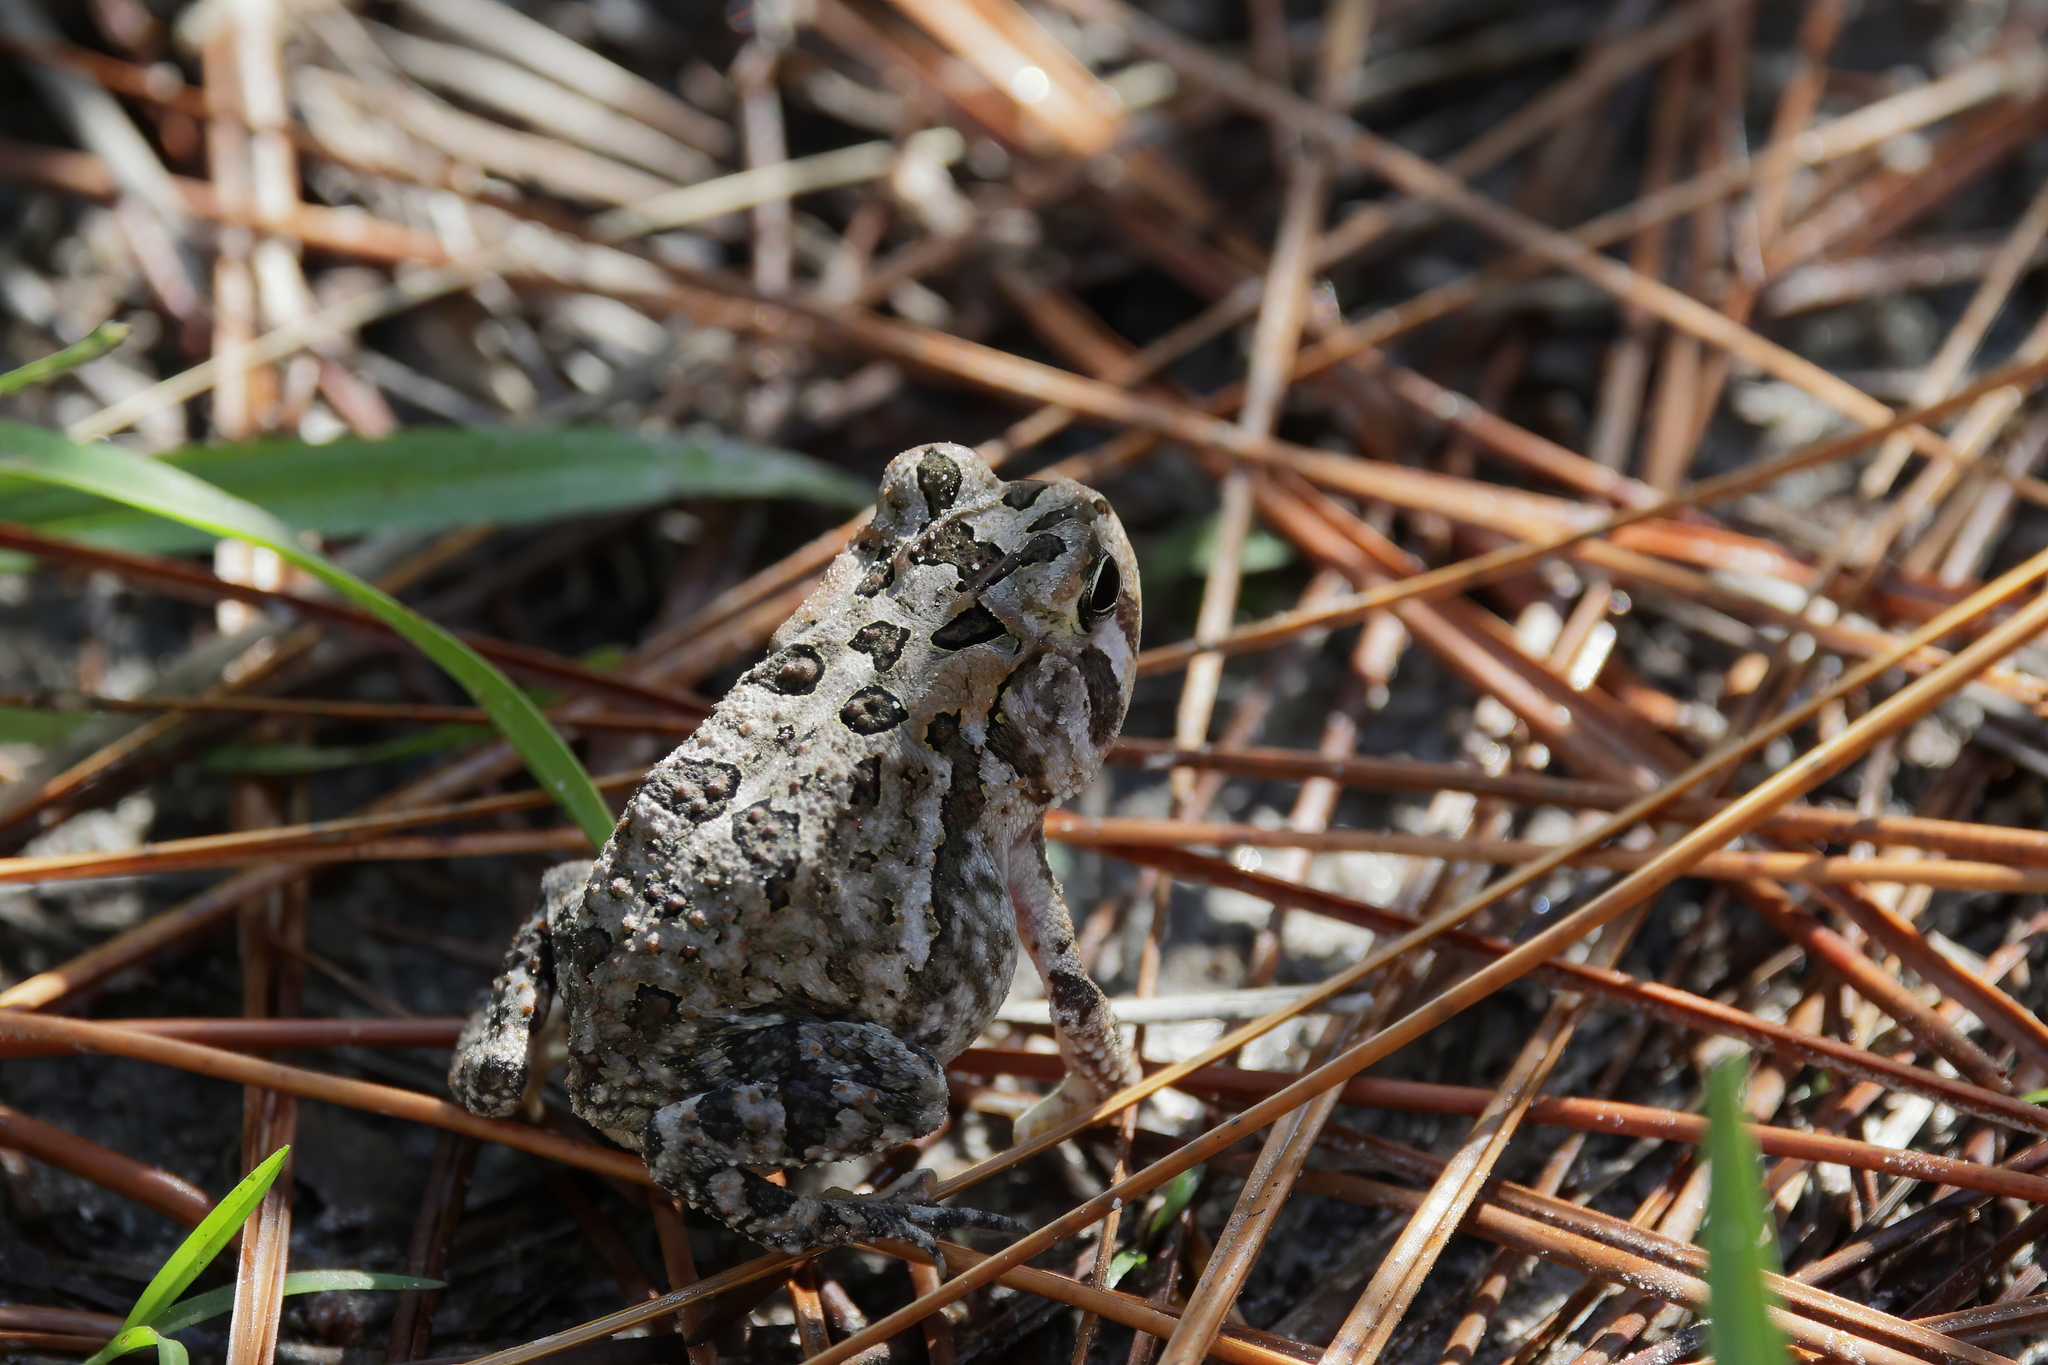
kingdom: Animalia
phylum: Chordata
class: Amphibia
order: Anura
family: Bufonidae
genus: Anaxyrus
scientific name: Anaxyrus terrestris
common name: Southern toad
